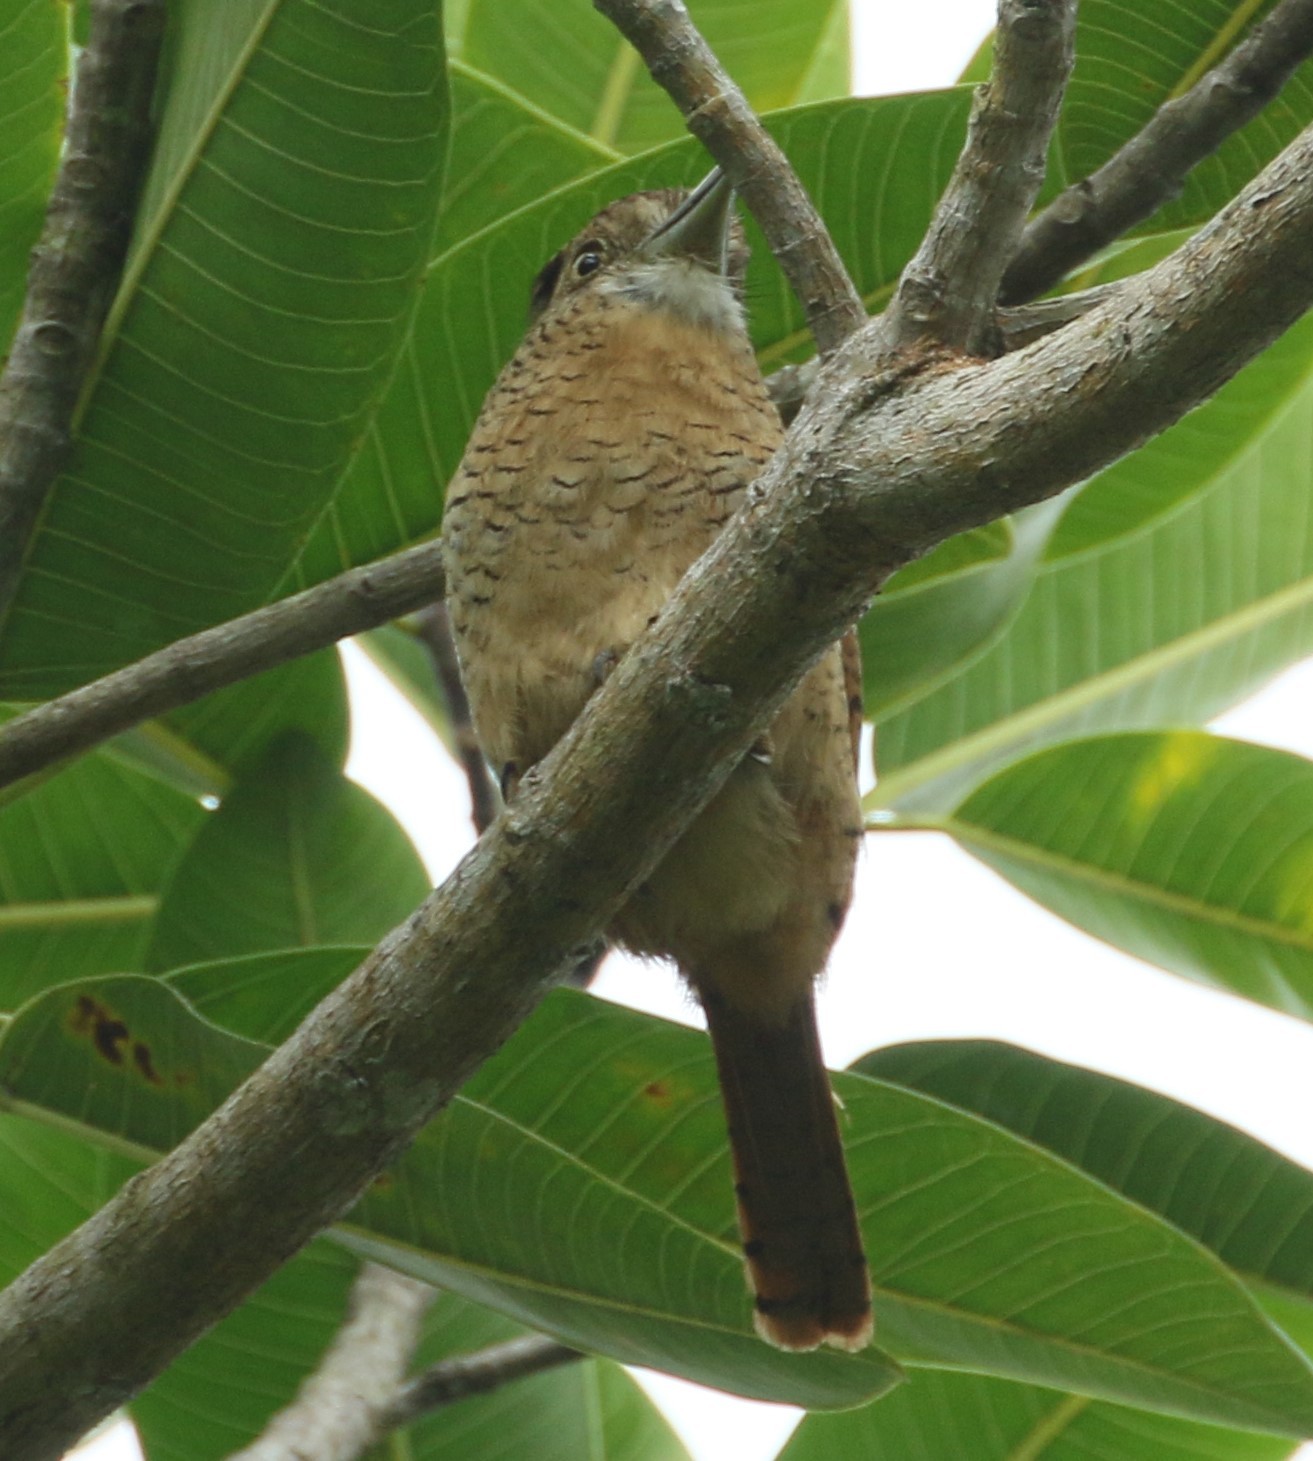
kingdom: Animalia
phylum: Chordata
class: Aves
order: Piciformes
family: Bucconidae
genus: Nystalus
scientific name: Nystalus radiatus
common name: Barred puffbird
